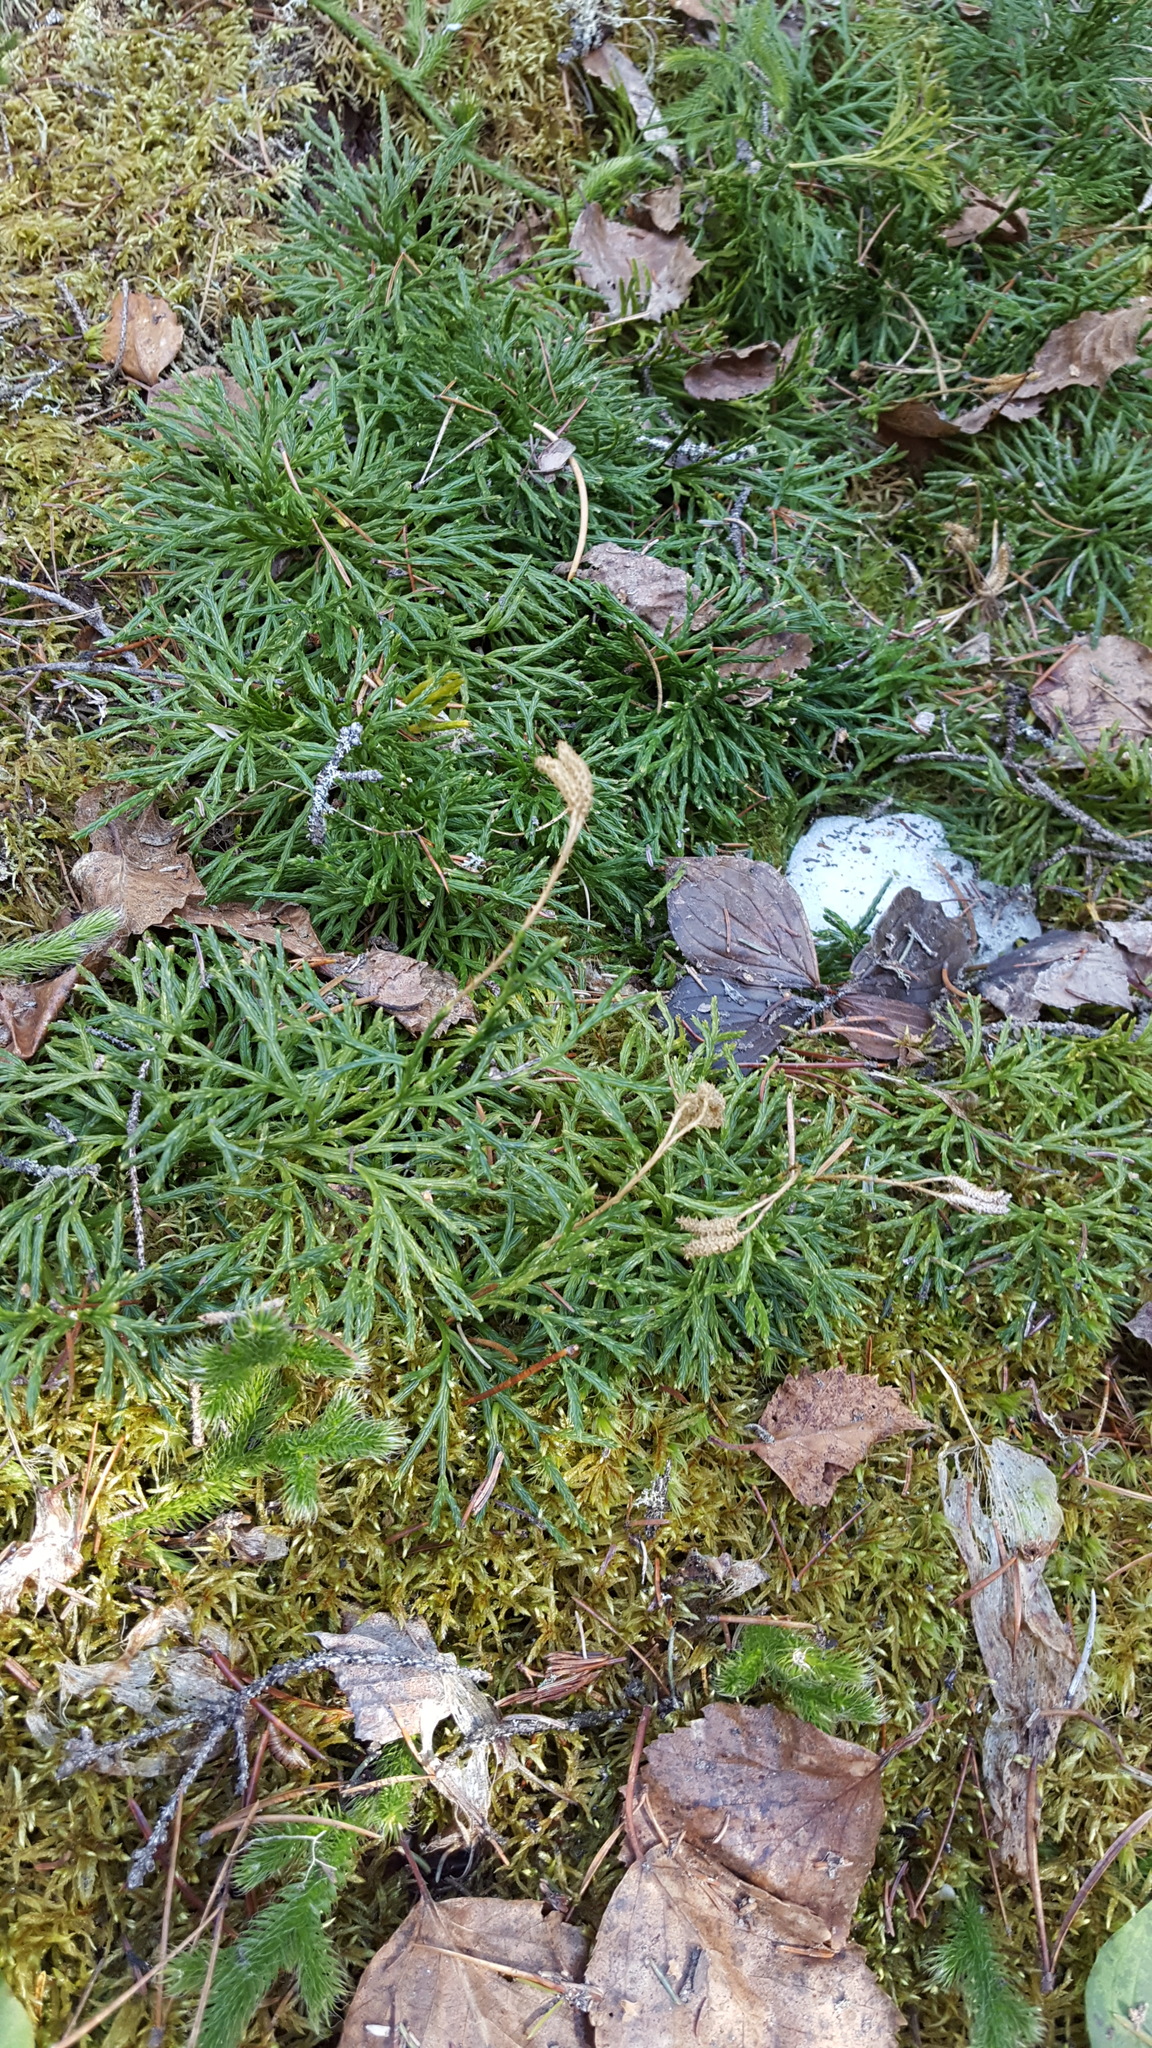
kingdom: Plantae
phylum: Tracheophyta
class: Lycopodiopsida
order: Lycopodiales
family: Lycopodiaceae
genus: Diphasiastrum
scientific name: Diphasiastrum complanatum
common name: Northern running-pine
